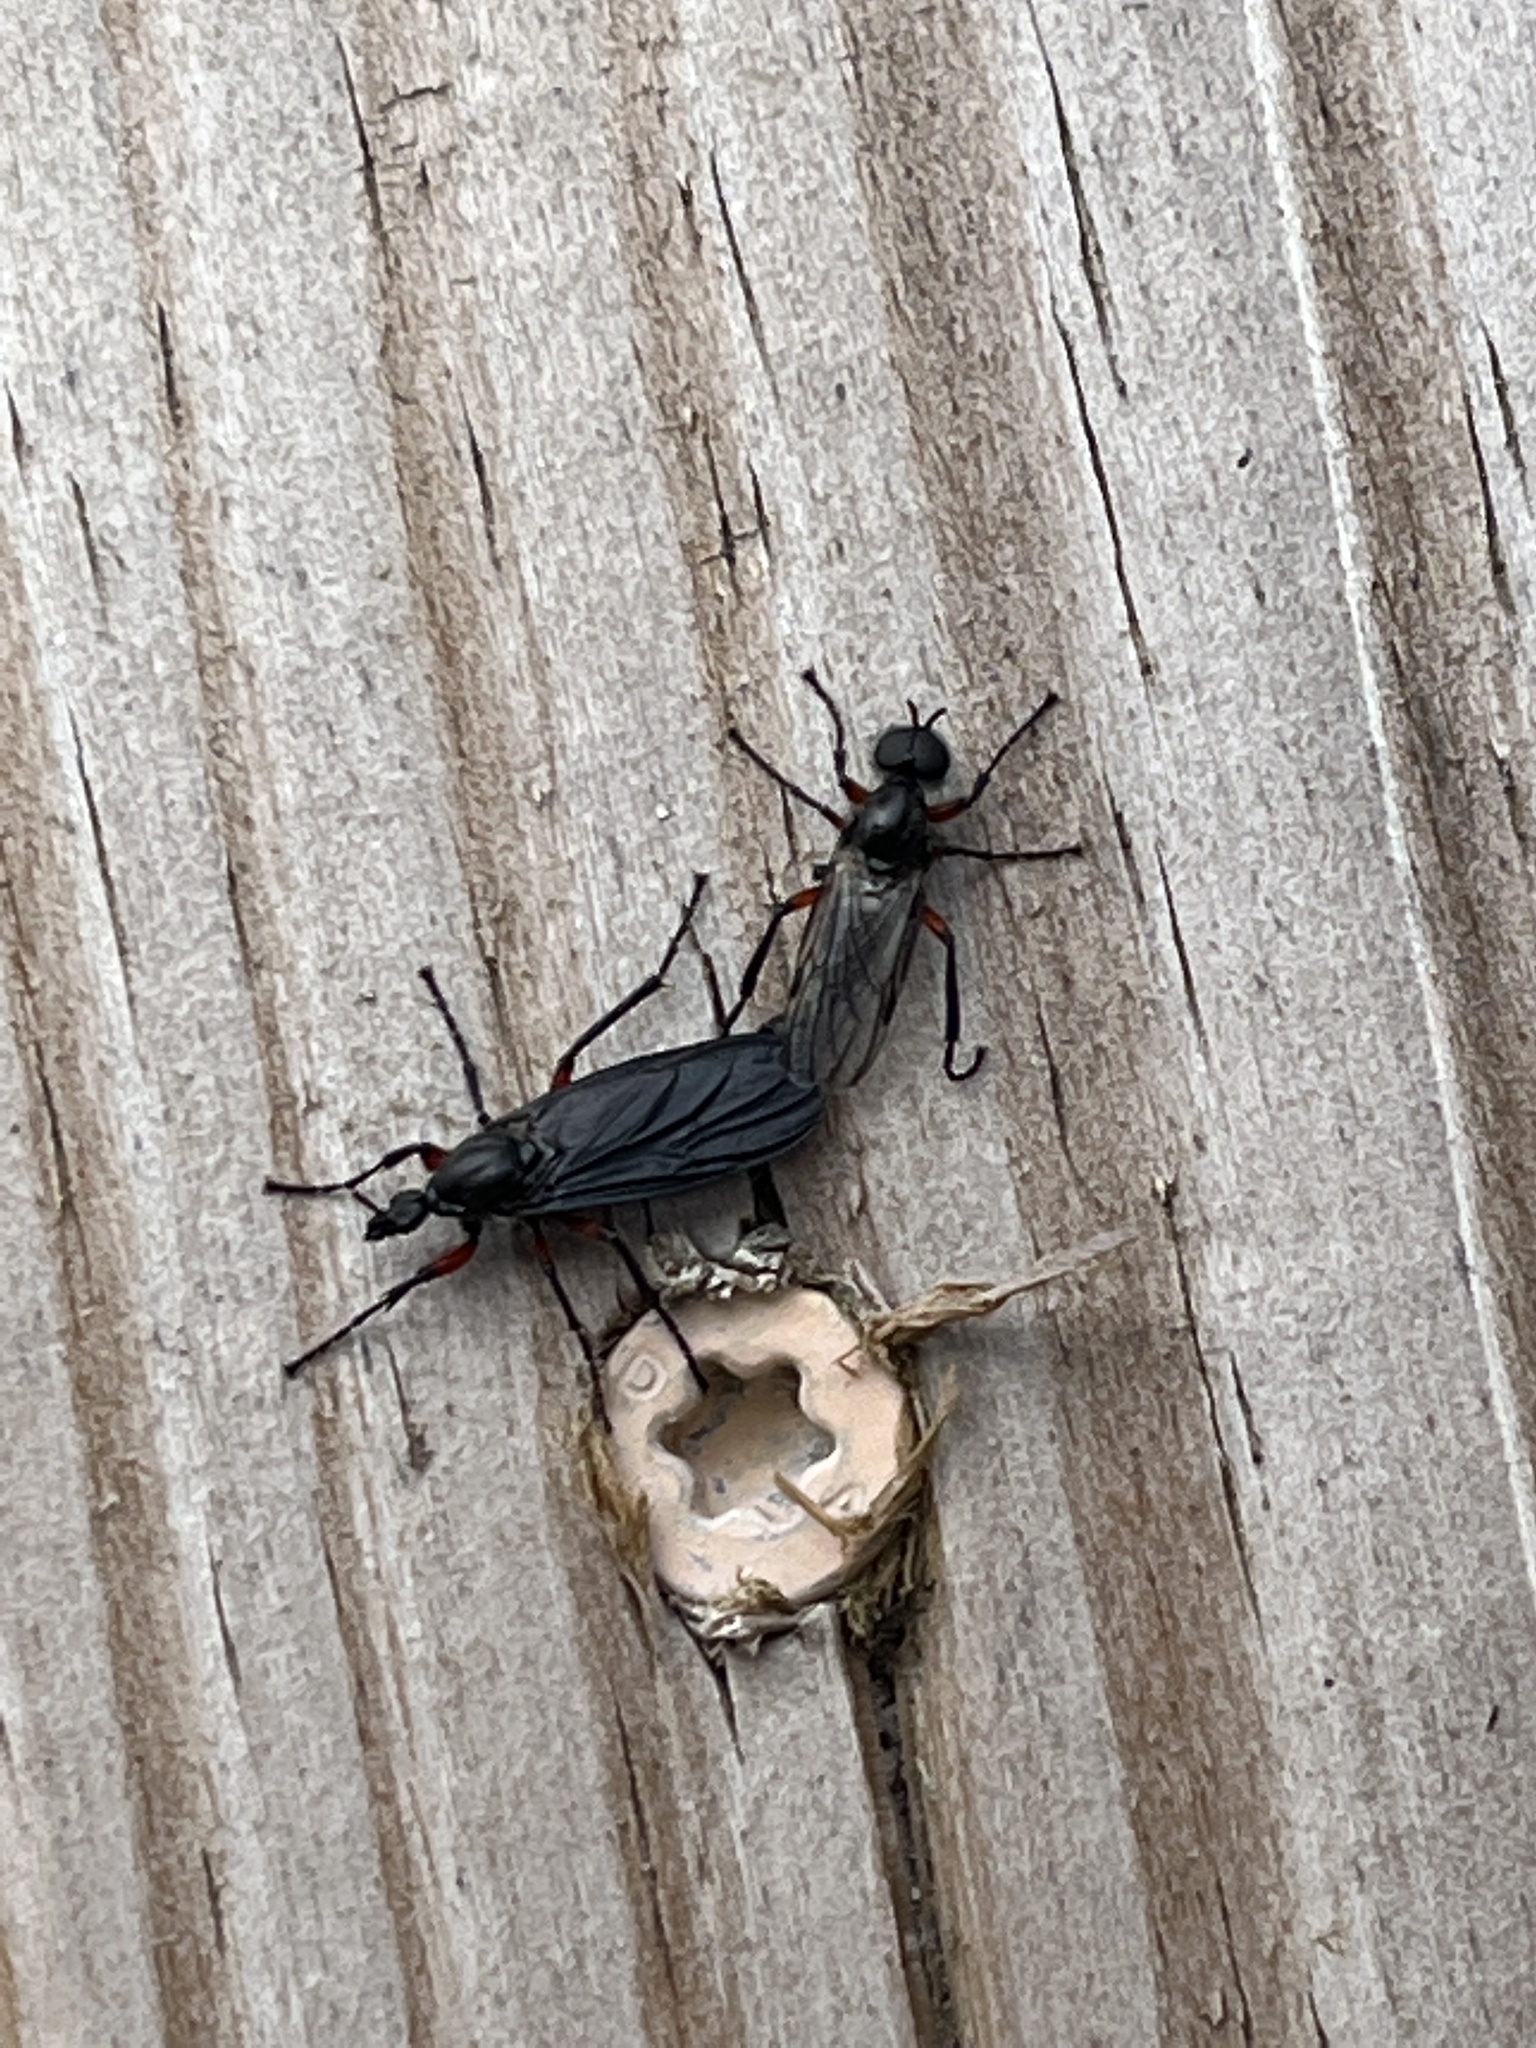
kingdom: Animalia
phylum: Arthropoda
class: Insecta
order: Diptera
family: Bibionidae
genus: Bibio
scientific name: Bibio femoratus
